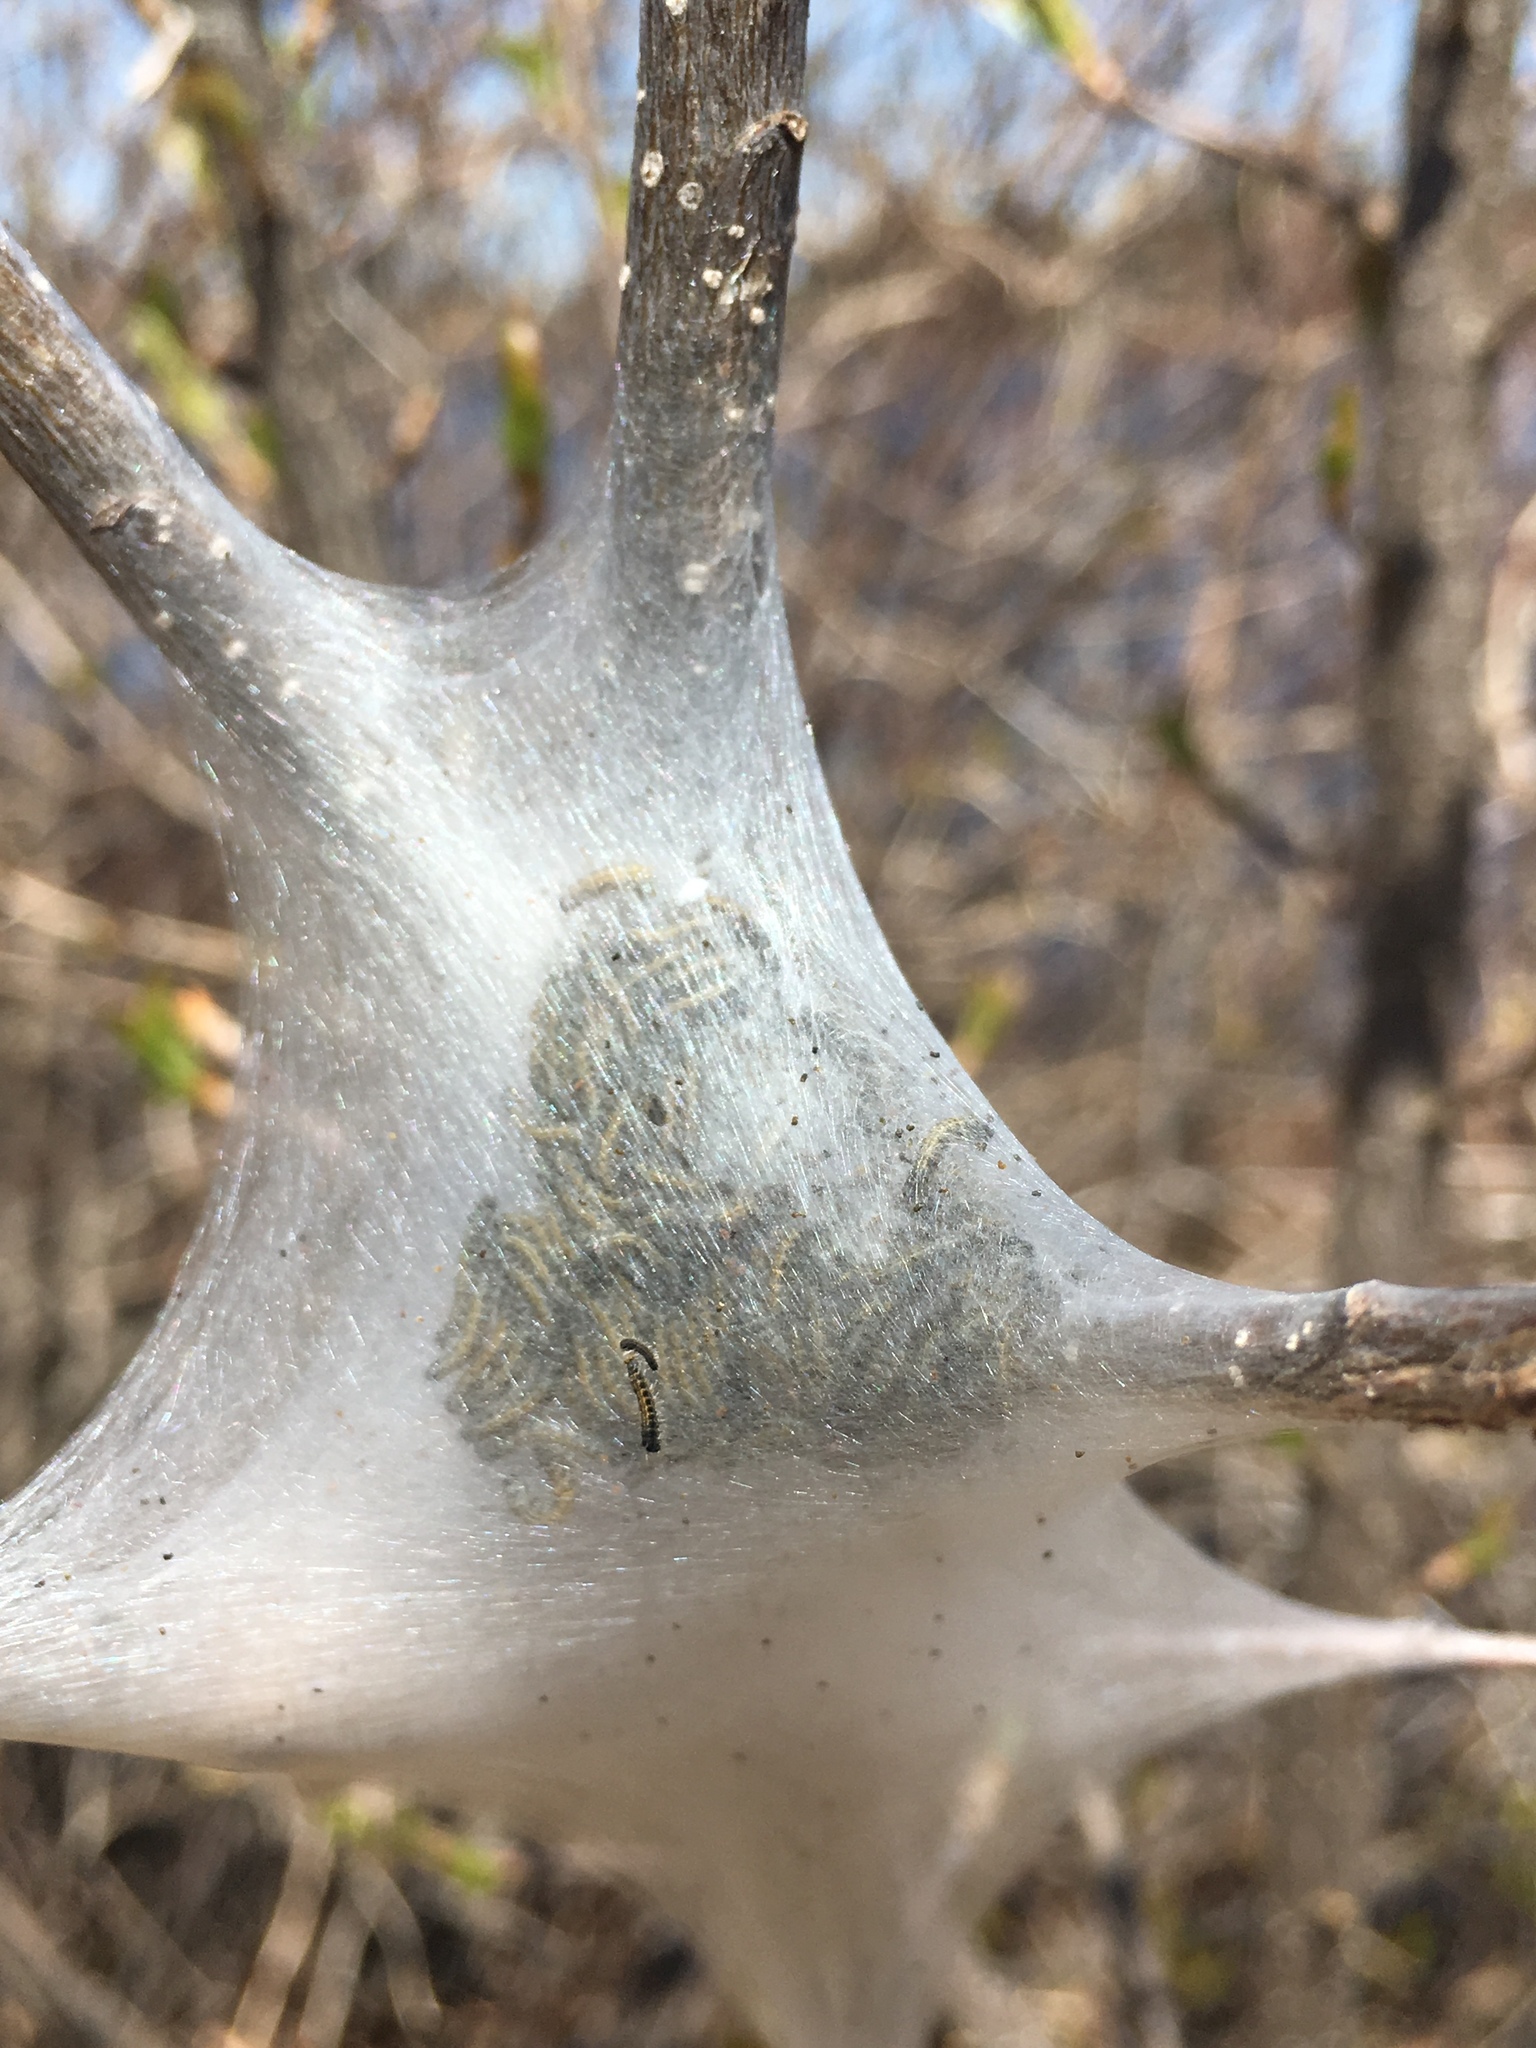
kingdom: Animalia
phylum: Arthropoda
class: Insecta
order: Lepidoptera
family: Lasiocampidae
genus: Malacosoma
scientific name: Malacosoma americana
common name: Eastern tent caterpillar moth
